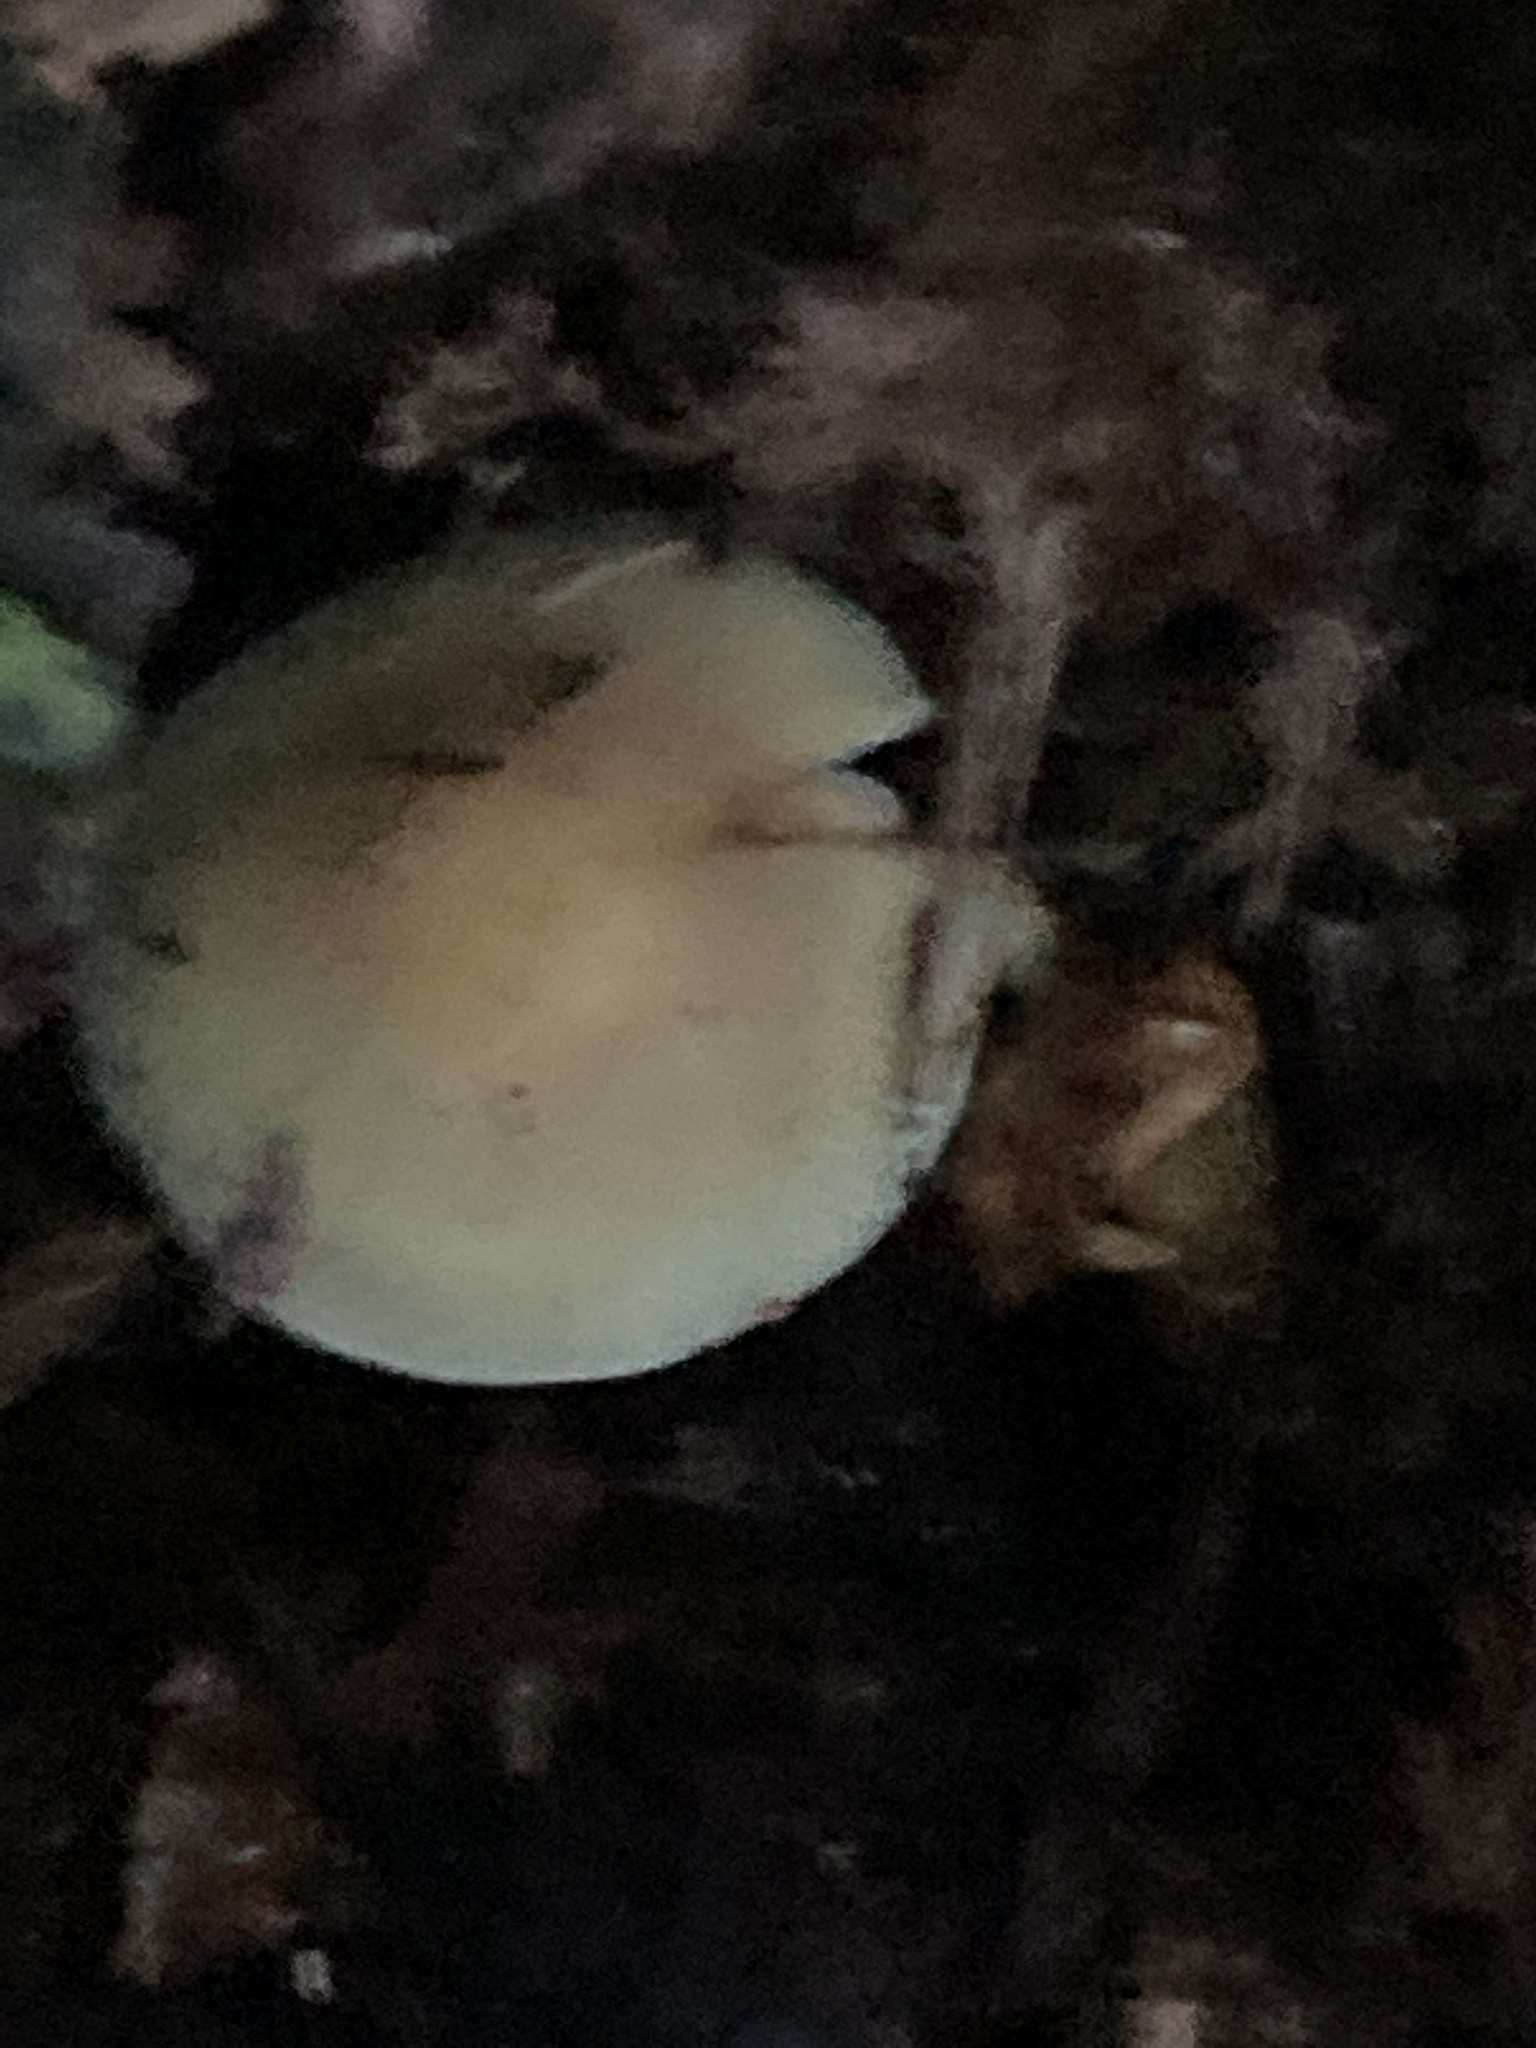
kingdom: Fungi
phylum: Basidiomycota
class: Agaricomycetes
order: Agaricales
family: Strophariaceae
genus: Hypholoma
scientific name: Hypholoma fasciculare
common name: Sulphur tuft
